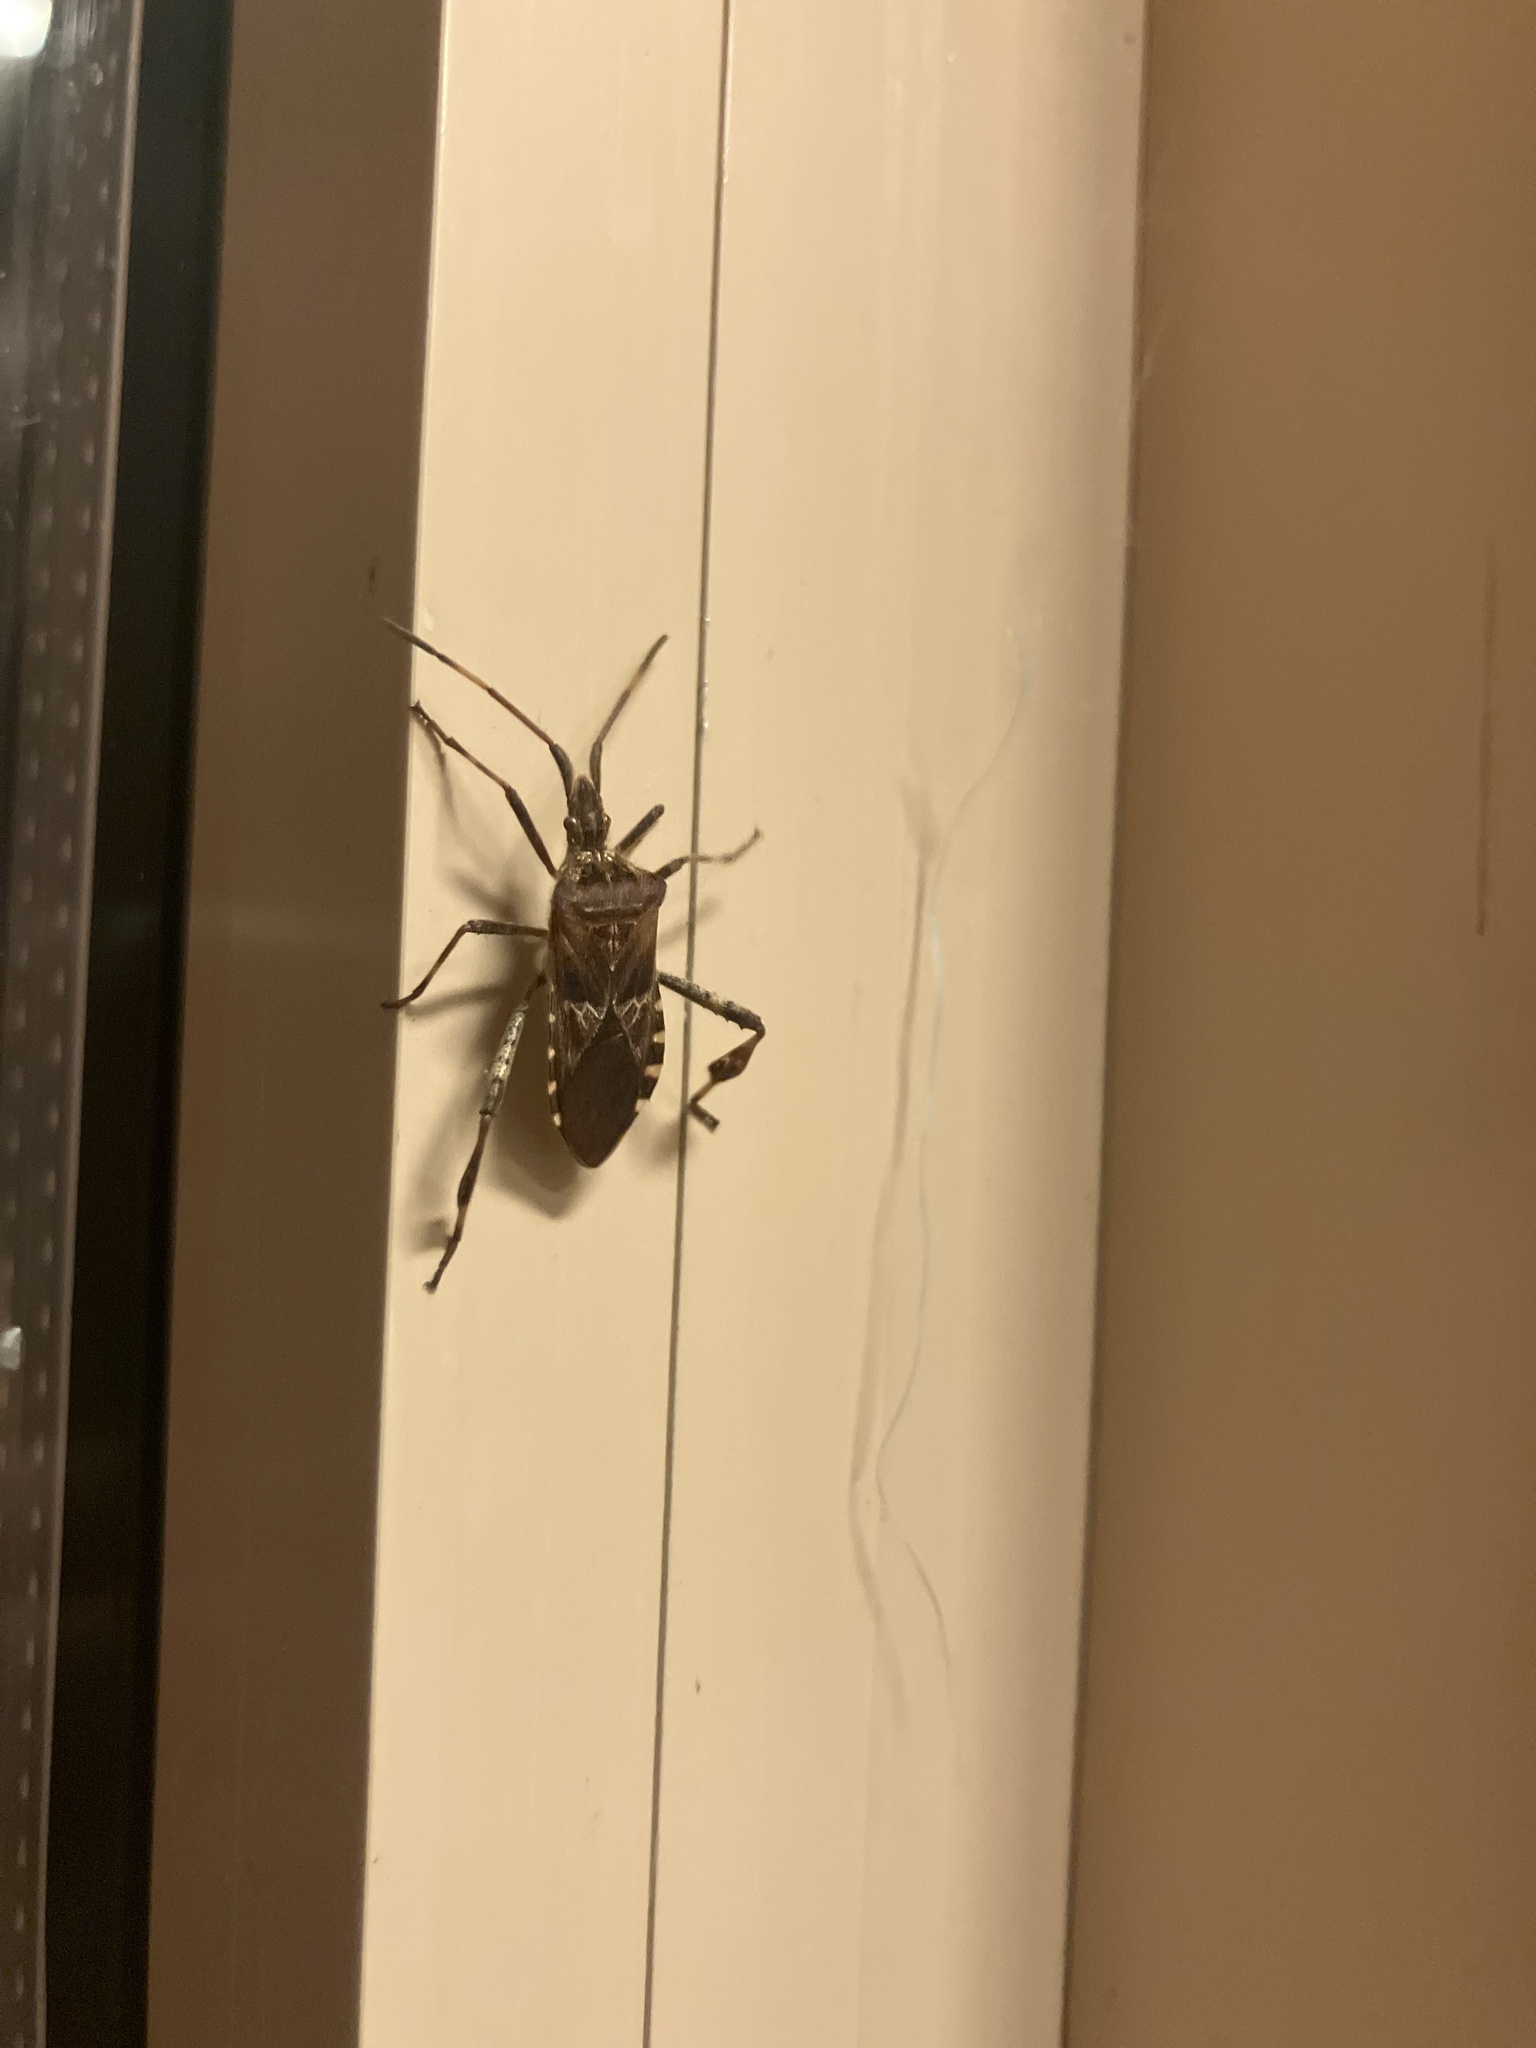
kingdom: Animalia
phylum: Arthropoda
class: Insecta
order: Hemiptera
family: Coreidae
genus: Leptoglossus
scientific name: Leptoglossus occidentalis
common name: Western conifer-seed bug
